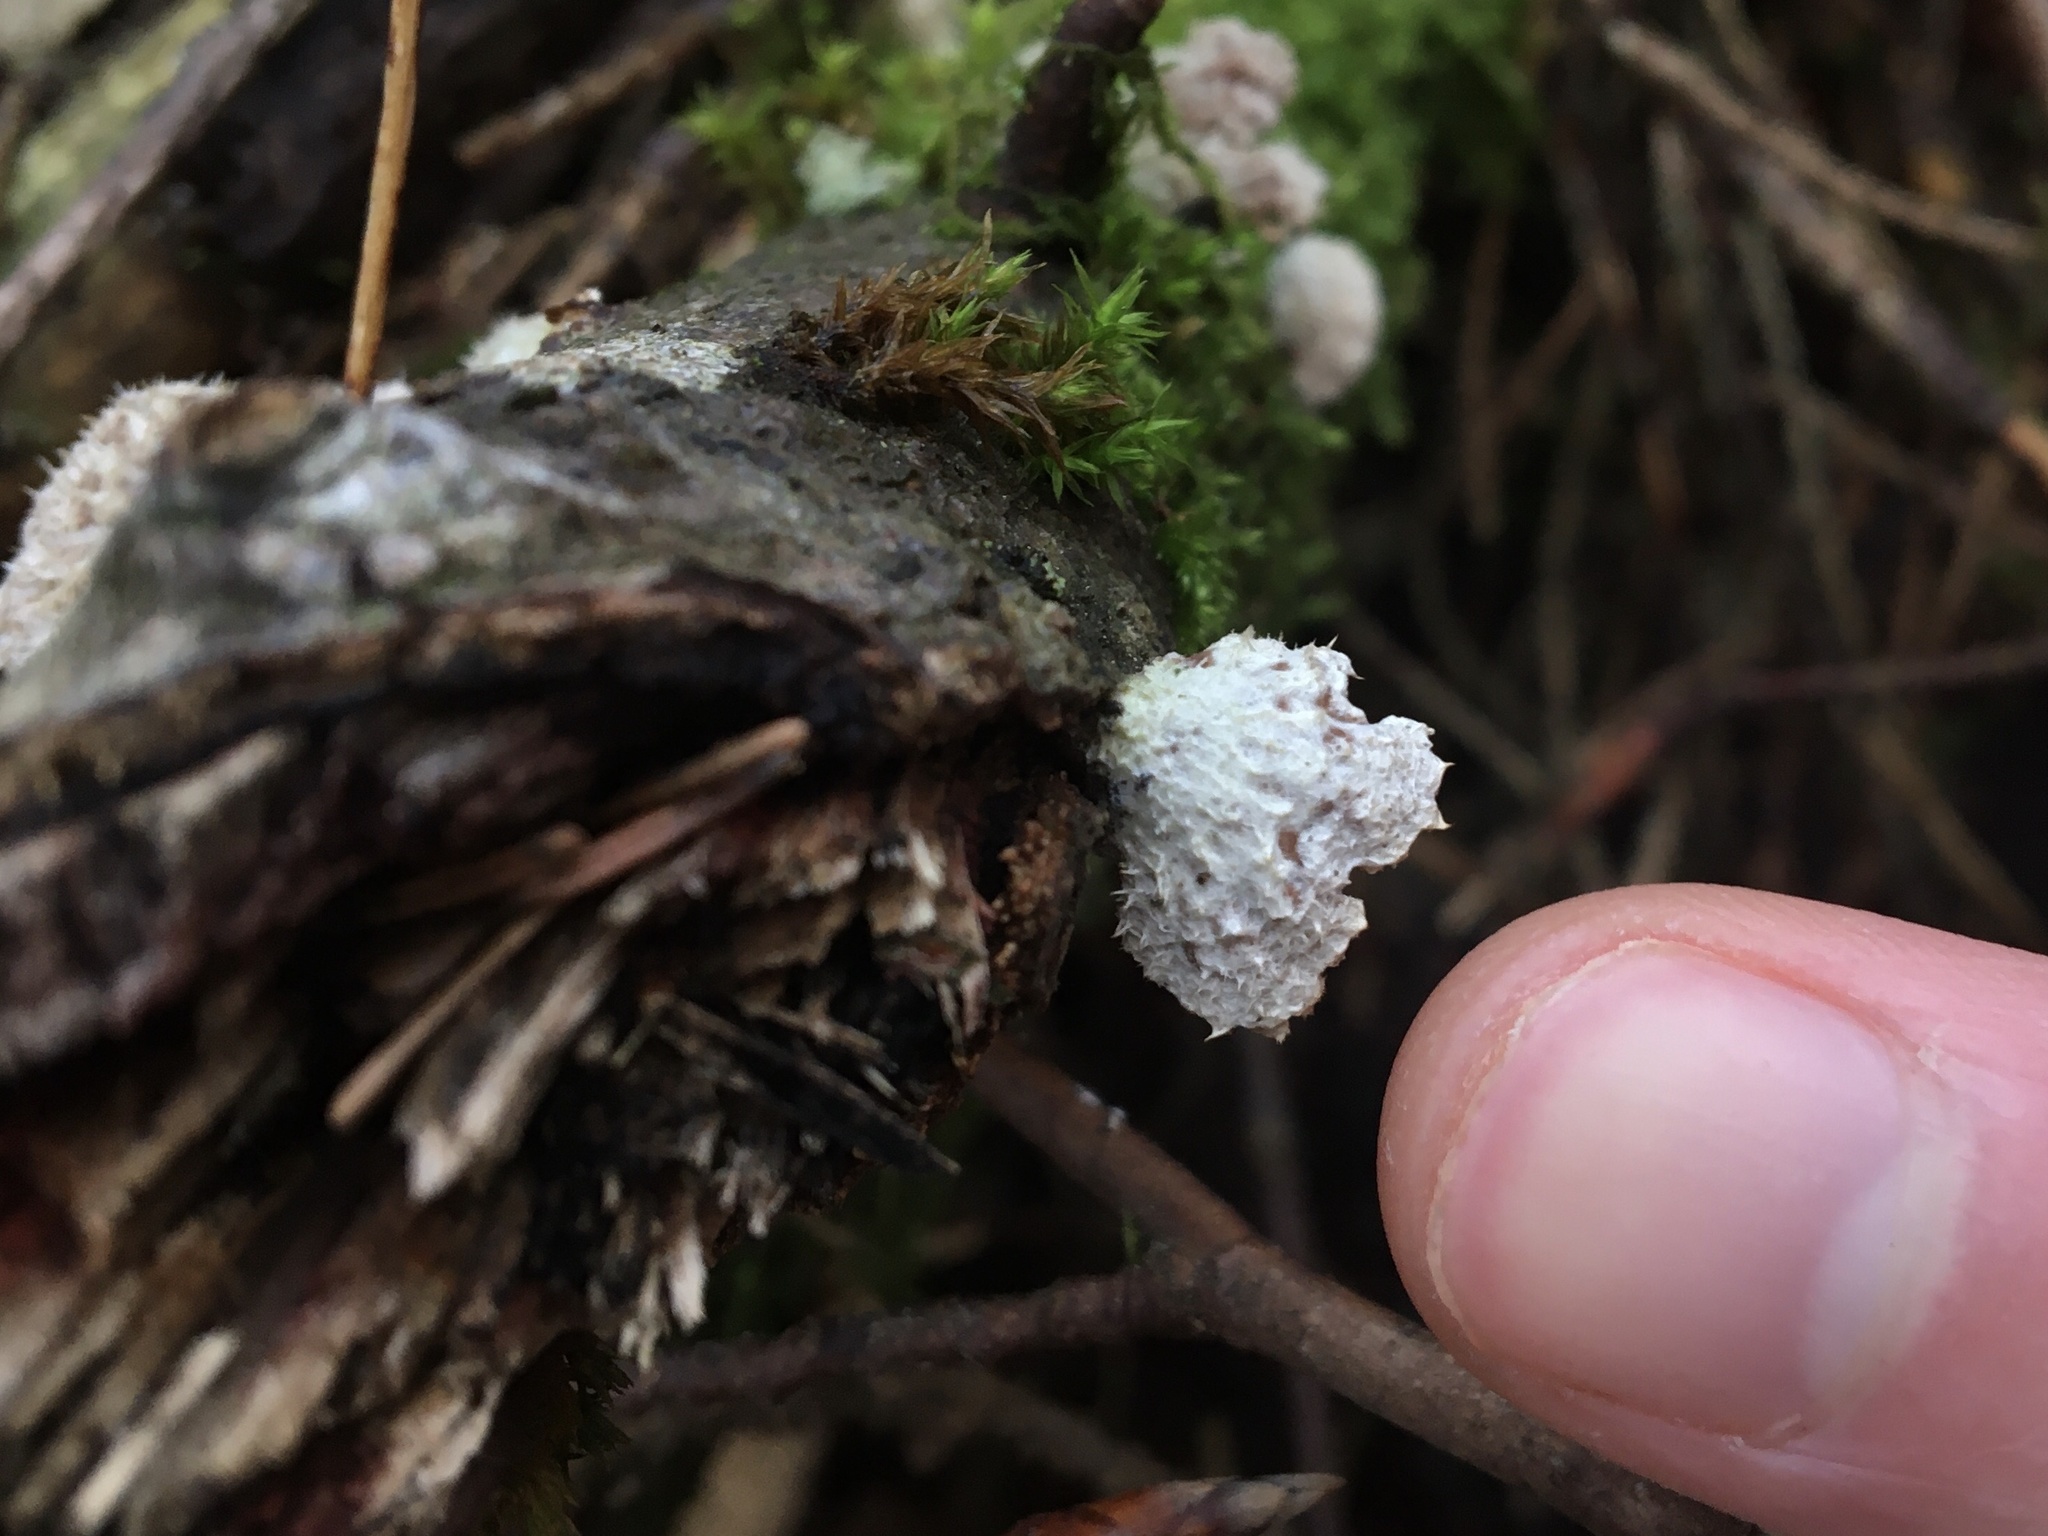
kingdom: Fungi
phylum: Basidiomycota
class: Agaricomycetes
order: Agaricales
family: Schizophyllaceae
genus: Schizophyllum
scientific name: Schizophyllum commune
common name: Common porecrust
